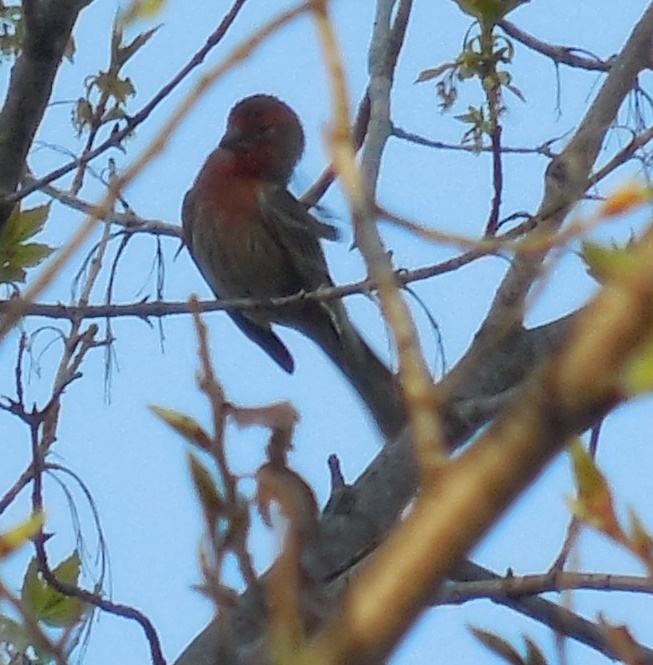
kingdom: Animalia
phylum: Chordata
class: Aves
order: Passeriformes
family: Fringillidae
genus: Haemorhous
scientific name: Haemorhous mexicanus
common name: House finch
